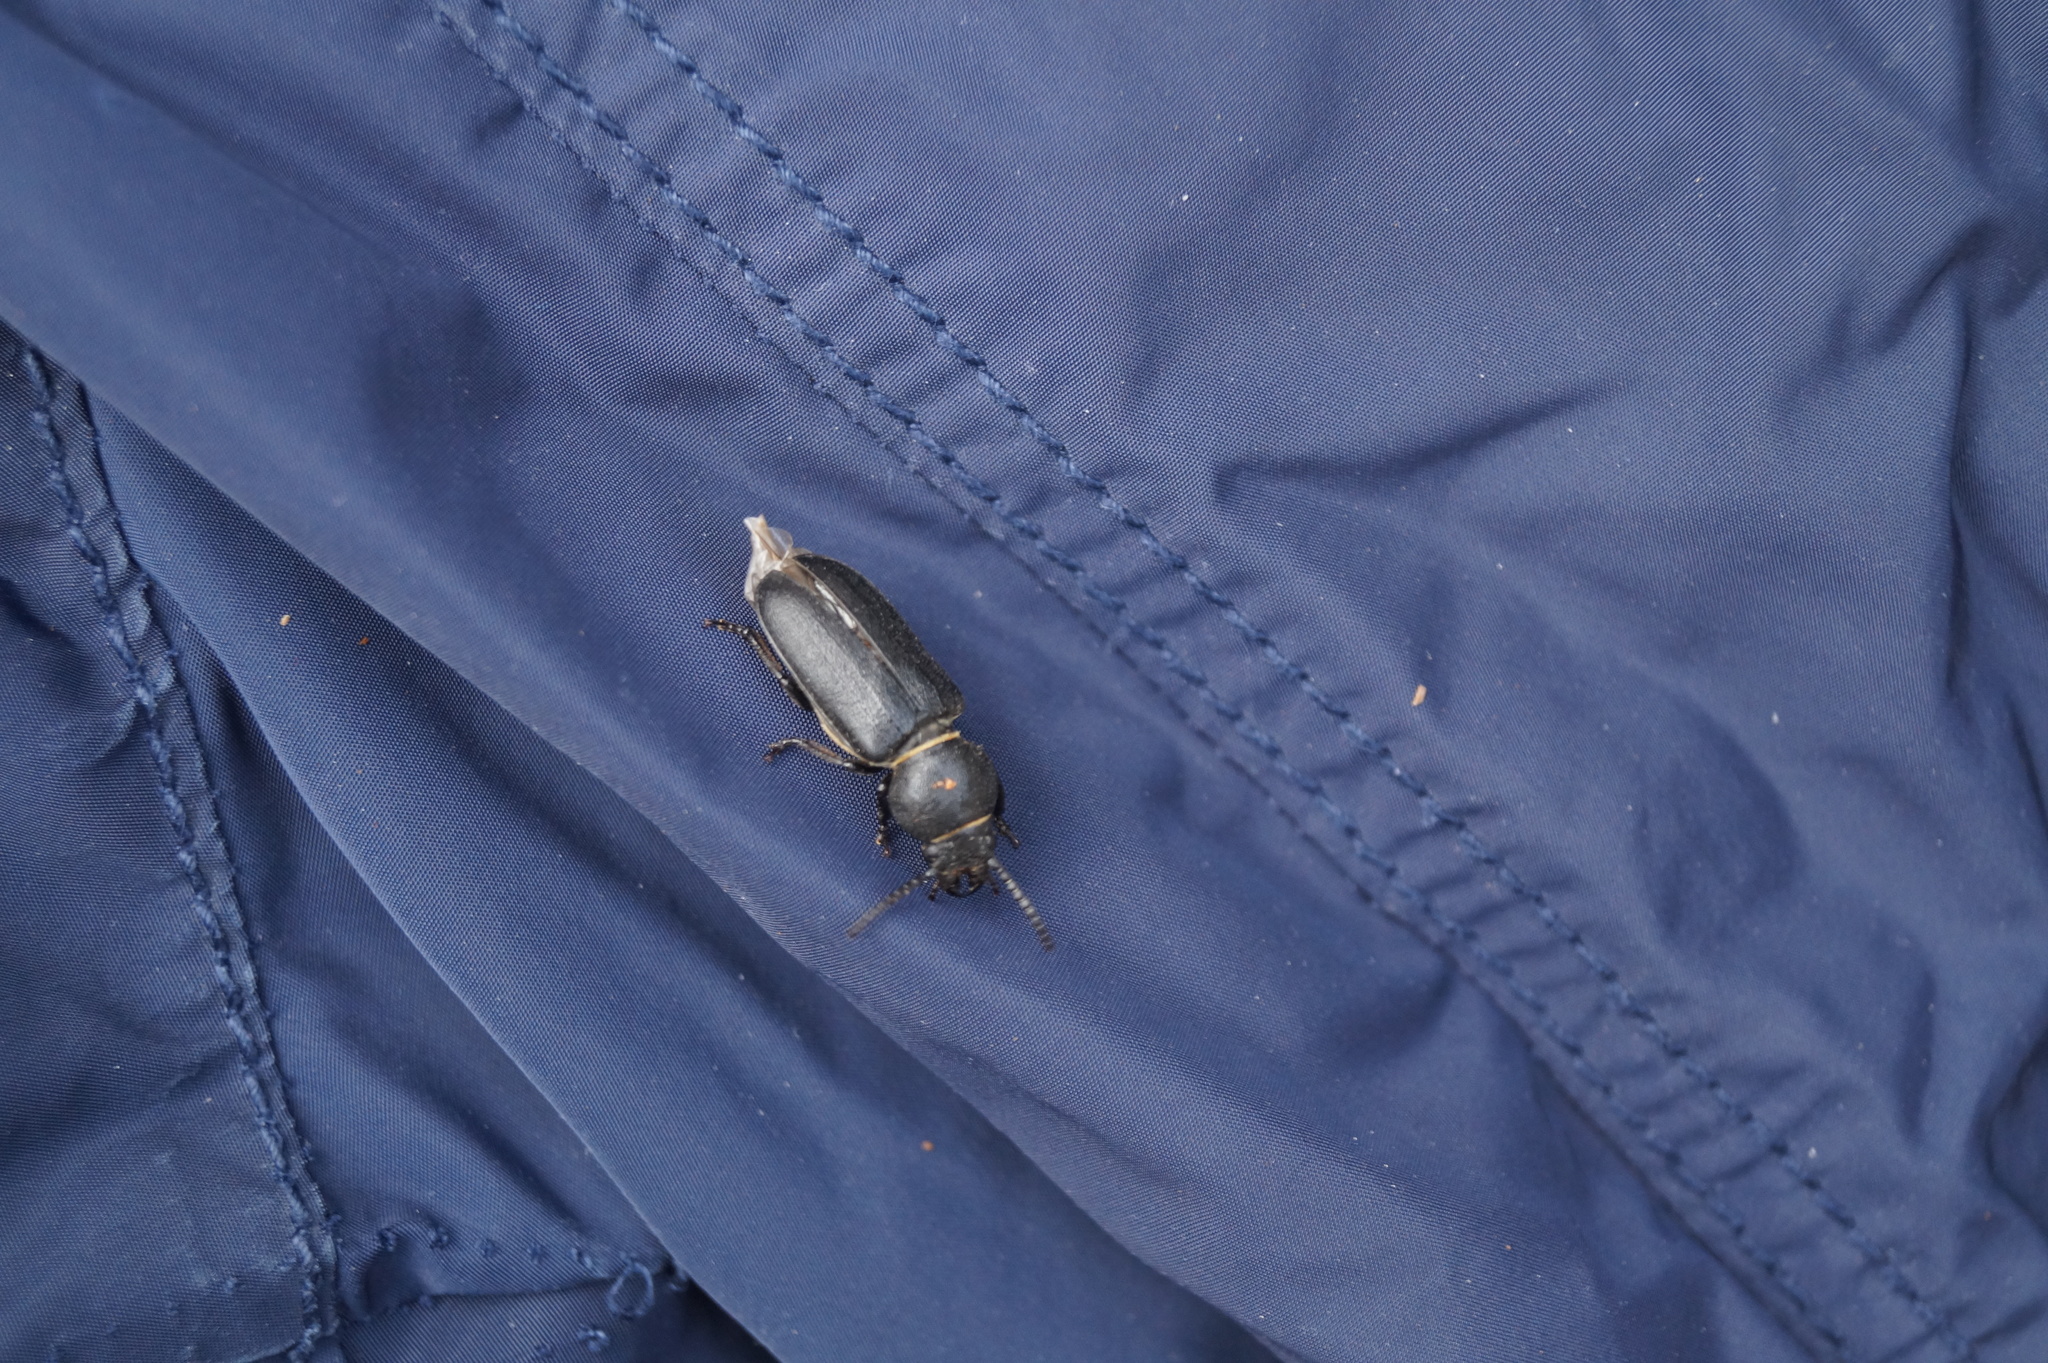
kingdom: Animalia
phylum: Arthropoda
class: Insecta
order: Coleoptera
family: Cerambycidae
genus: Spondylis
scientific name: Spondylis buprestoides
